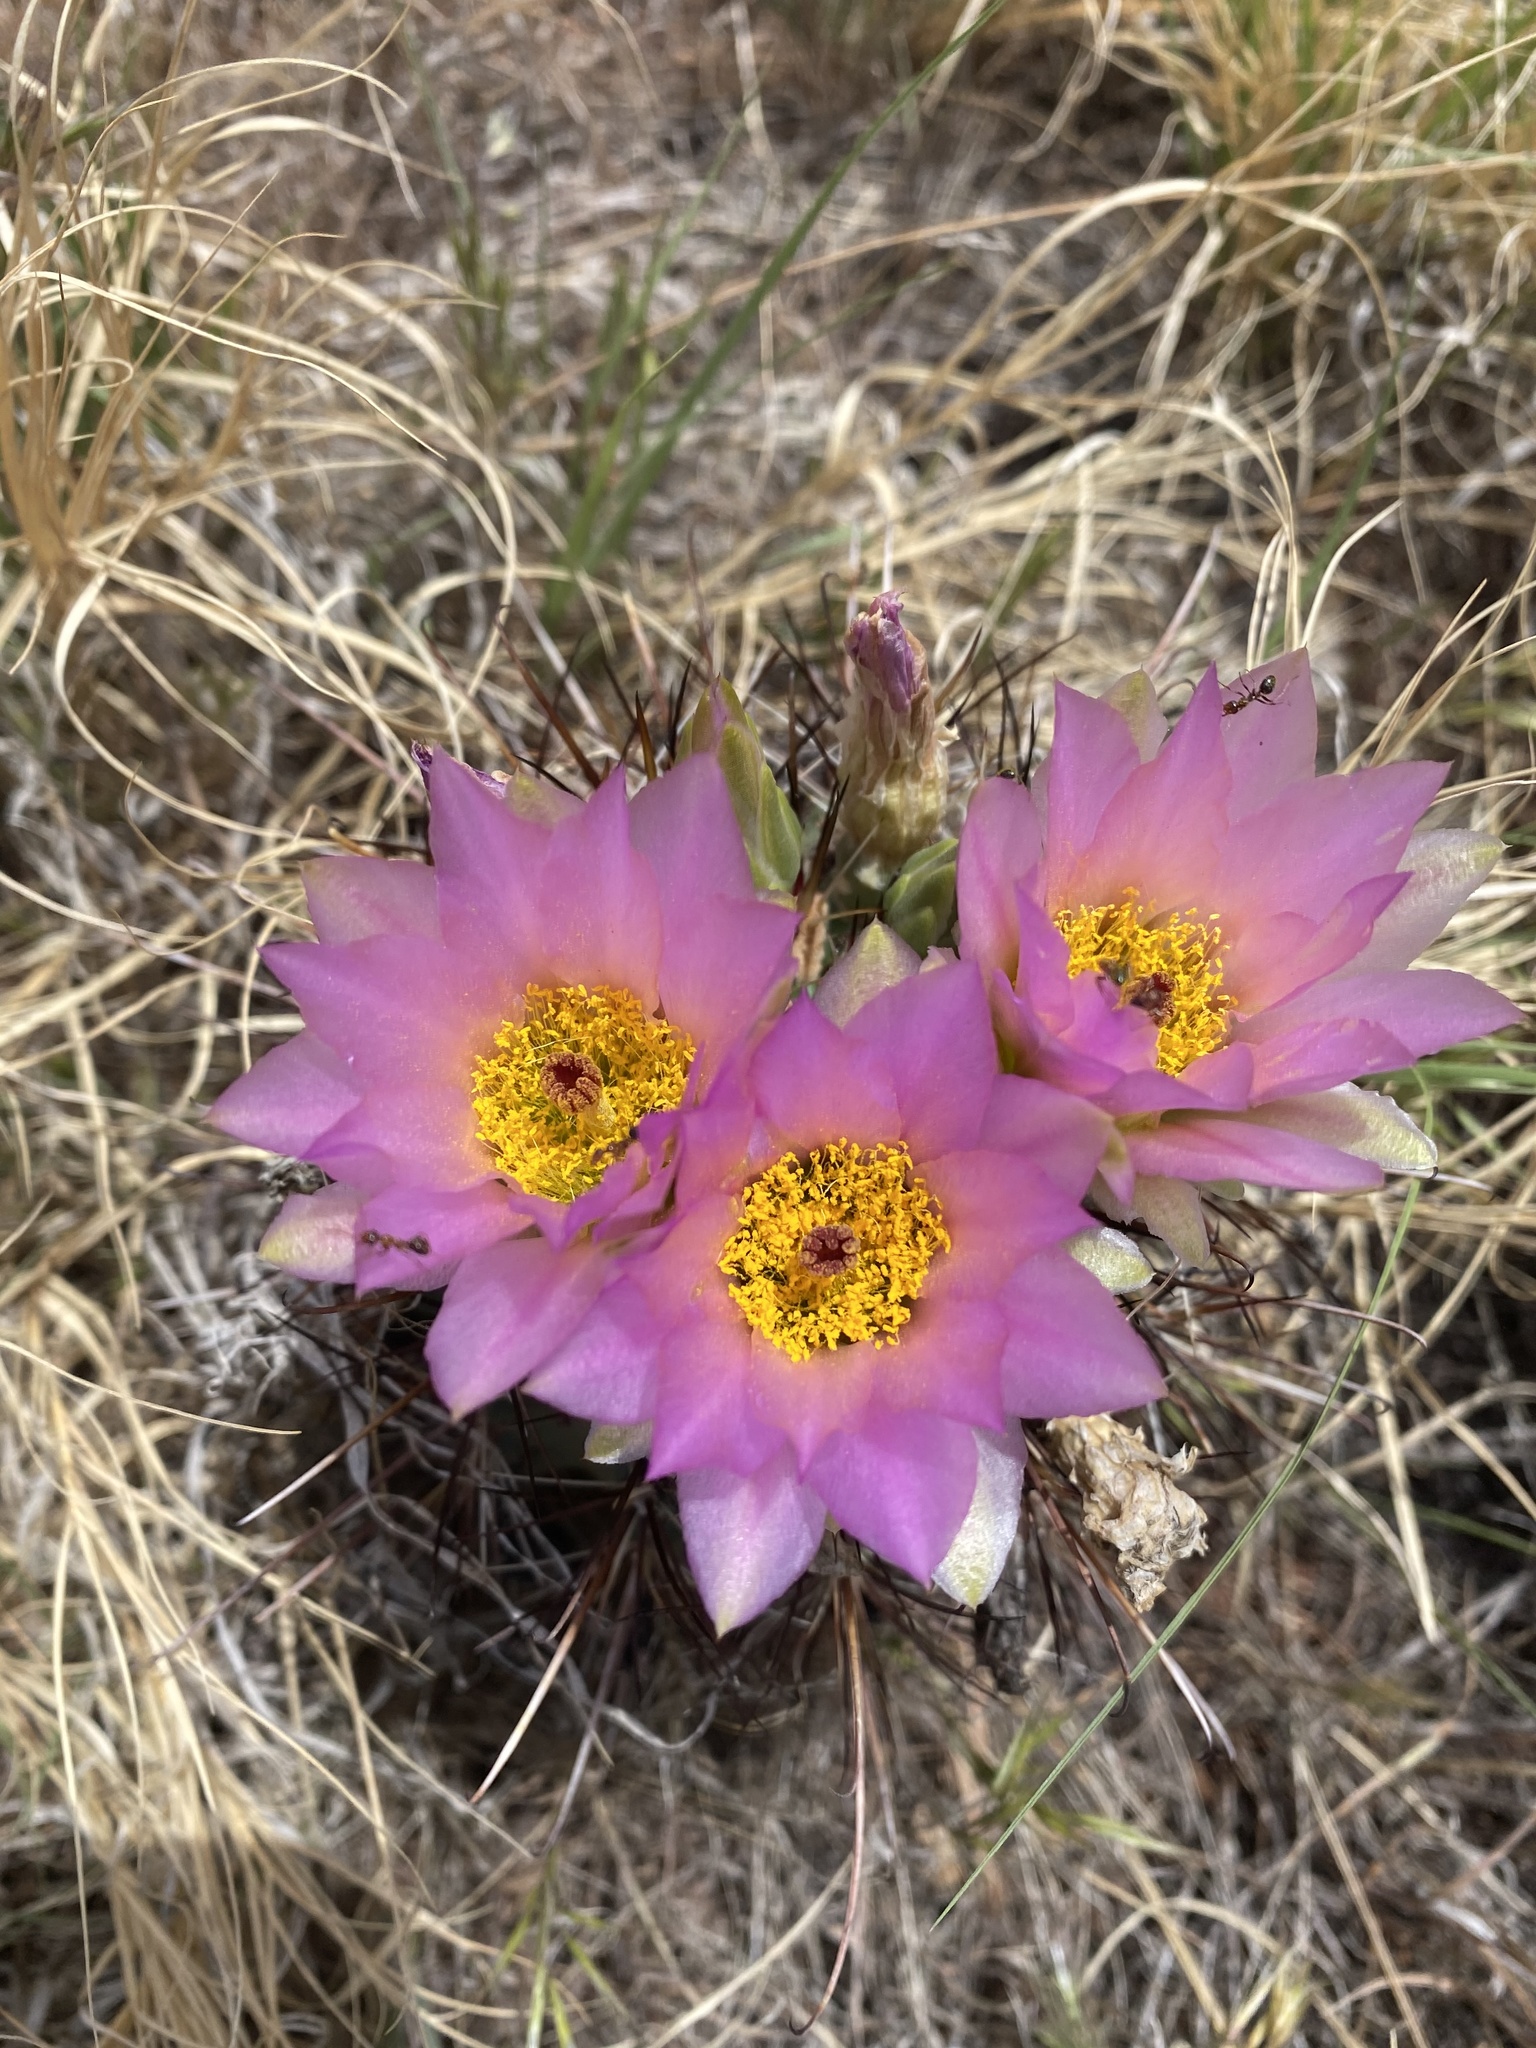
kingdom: Plantae
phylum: Tracheophyta
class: Magnoliopsida
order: Caryophyllales
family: Cactaceae
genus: Sclerocactus
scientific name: Sclerocactus parviflorus
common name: Small-flower fishhook cactus
